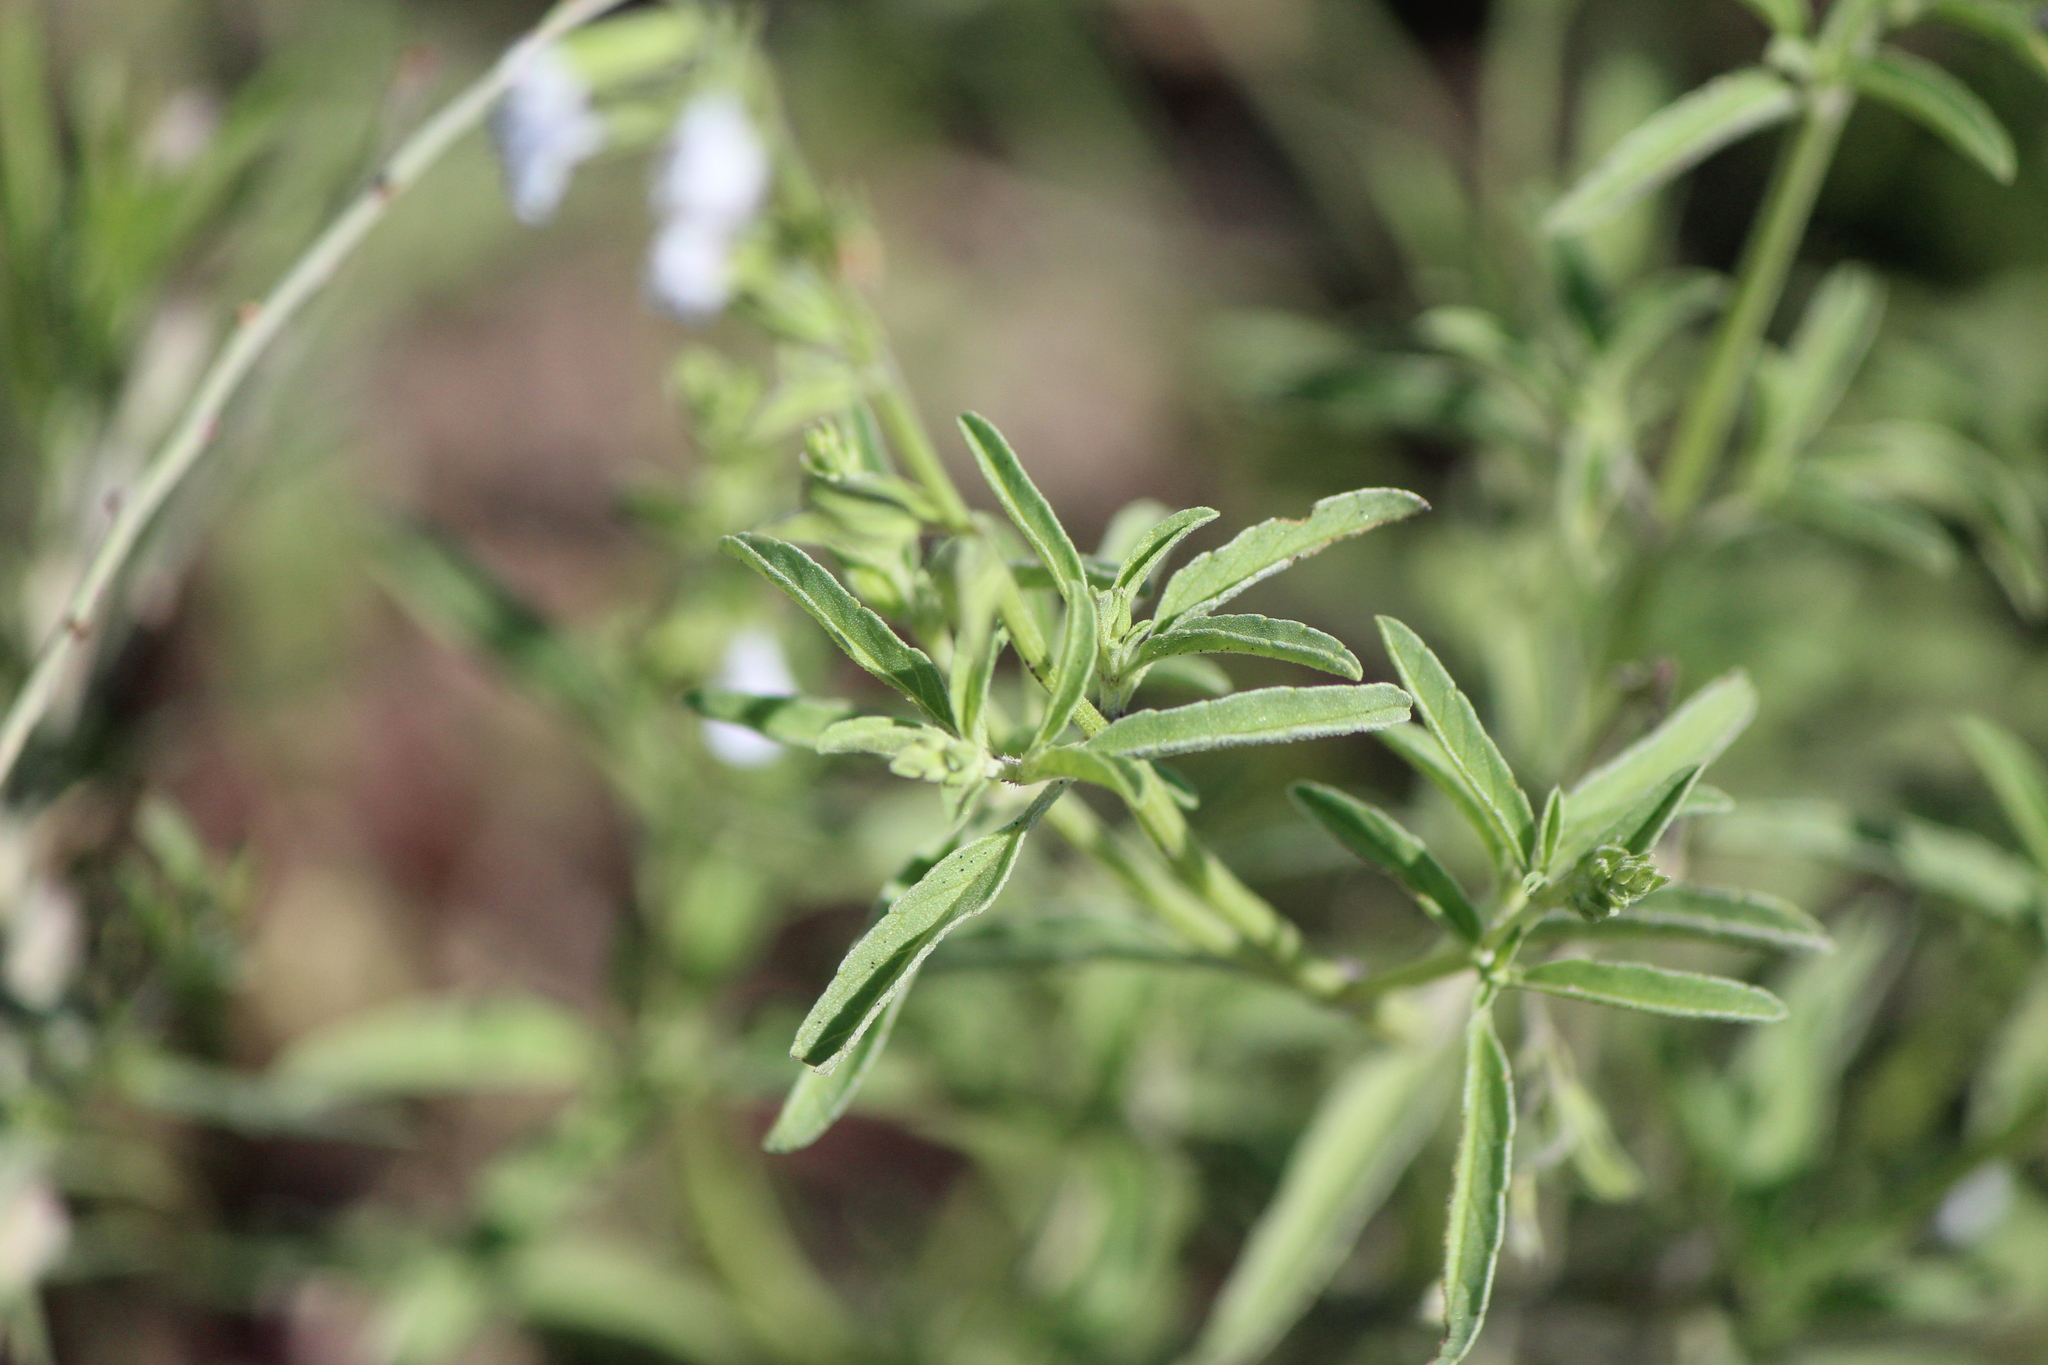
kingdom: Plantae
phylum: Tracheophyta
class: Magnoliopsida
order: Lamiales
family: Lamiaceae
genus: Salvia
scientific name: Salvia reflexa
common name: Mintweed
